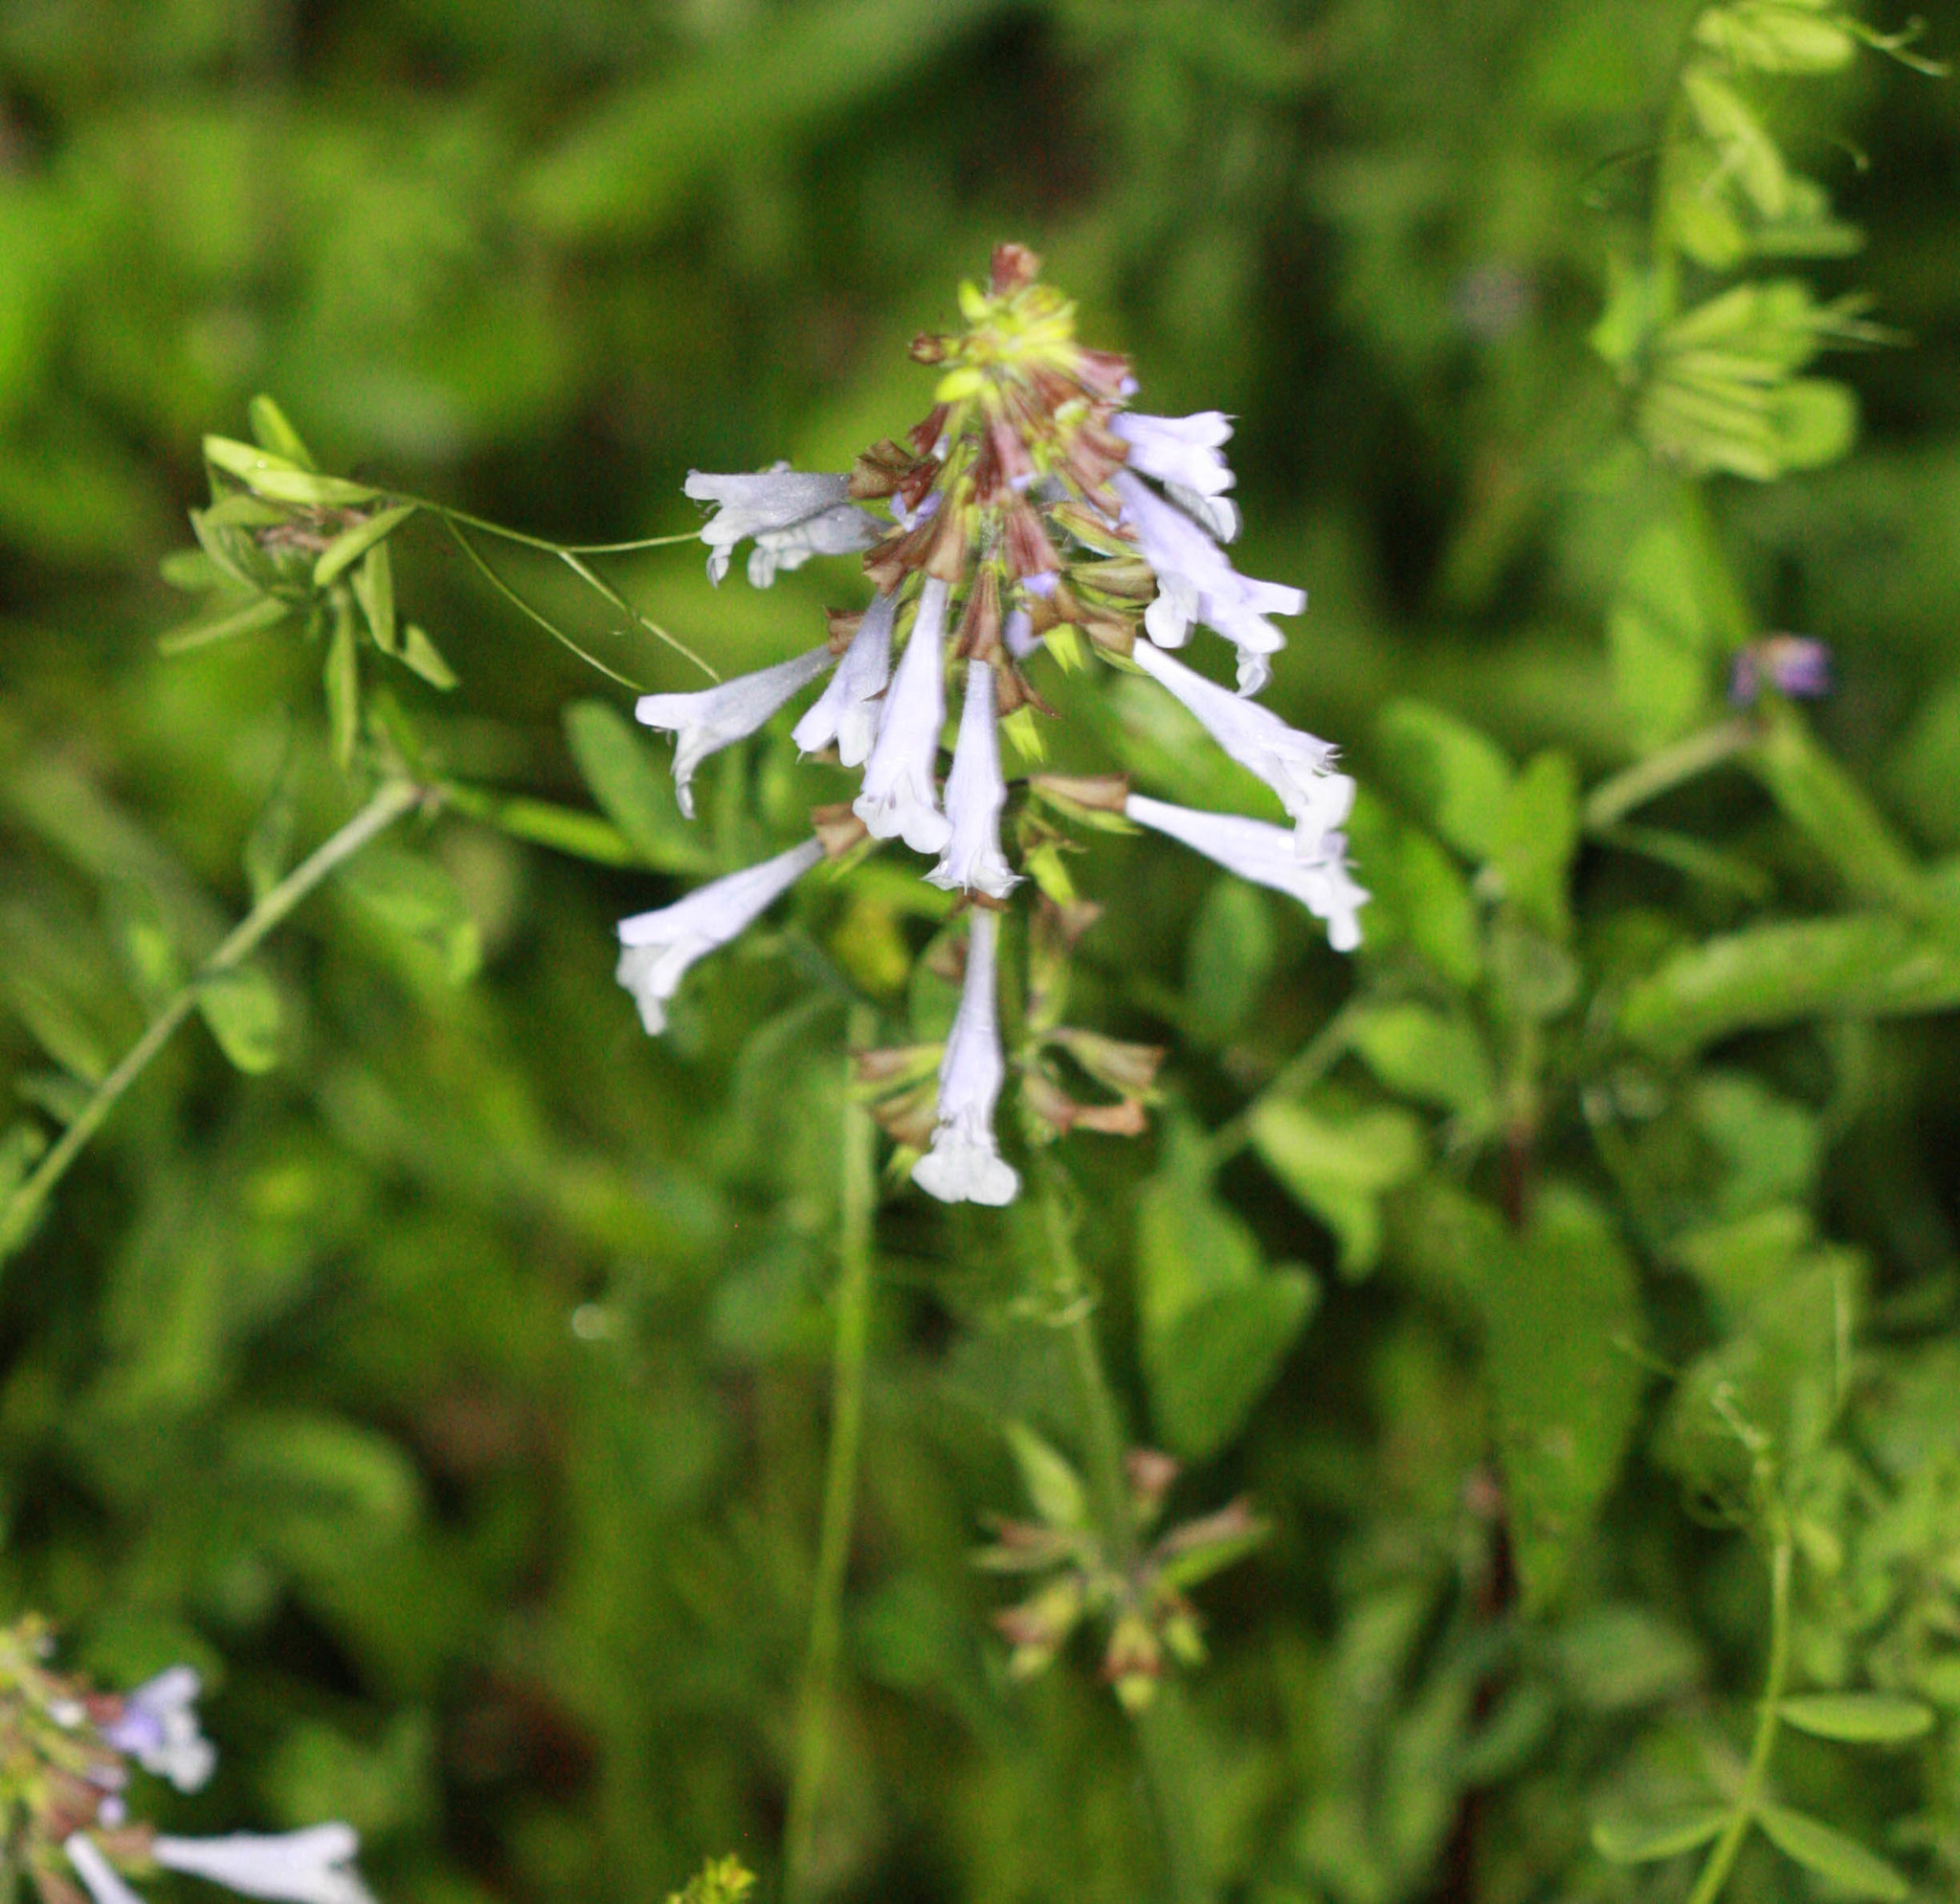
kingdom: Plantae
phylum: Tracheophyta
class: Magnoliopsida
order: Lamiales
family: Lamiaceae
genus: Salvia
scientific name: Salvia lyrata
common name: Cancerweed
